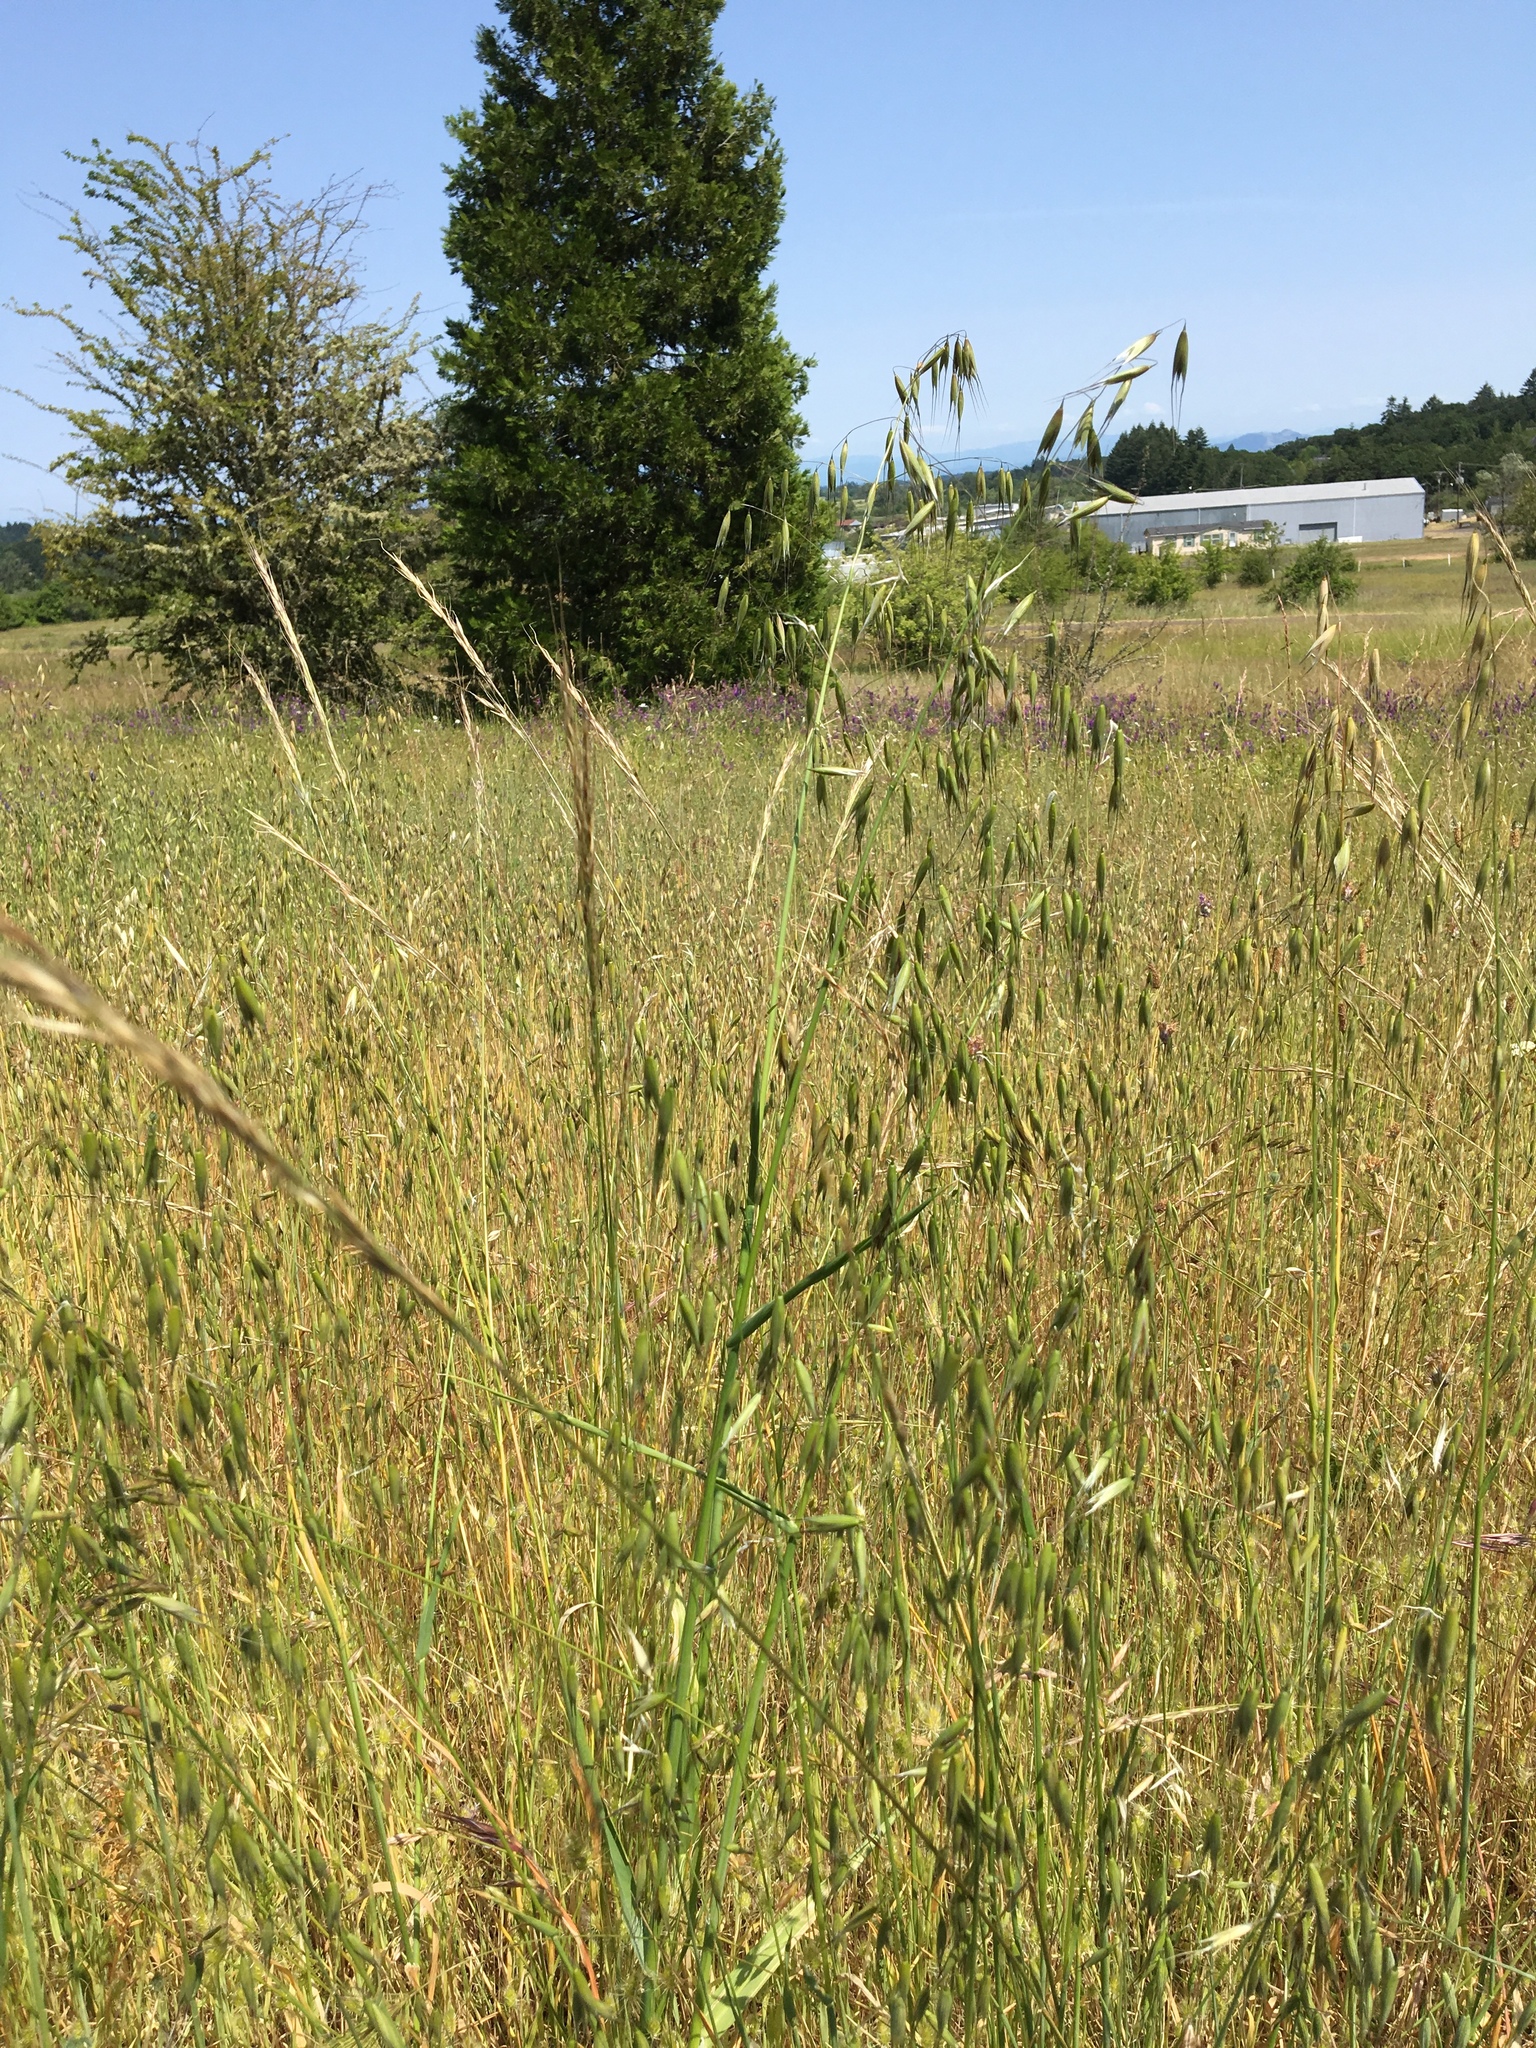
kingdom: Plantae
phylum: Tracheophyta
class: Liliopsida
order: Poales
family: Poaceae
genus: Avena
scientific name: Avena fatua
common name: Wild oat
